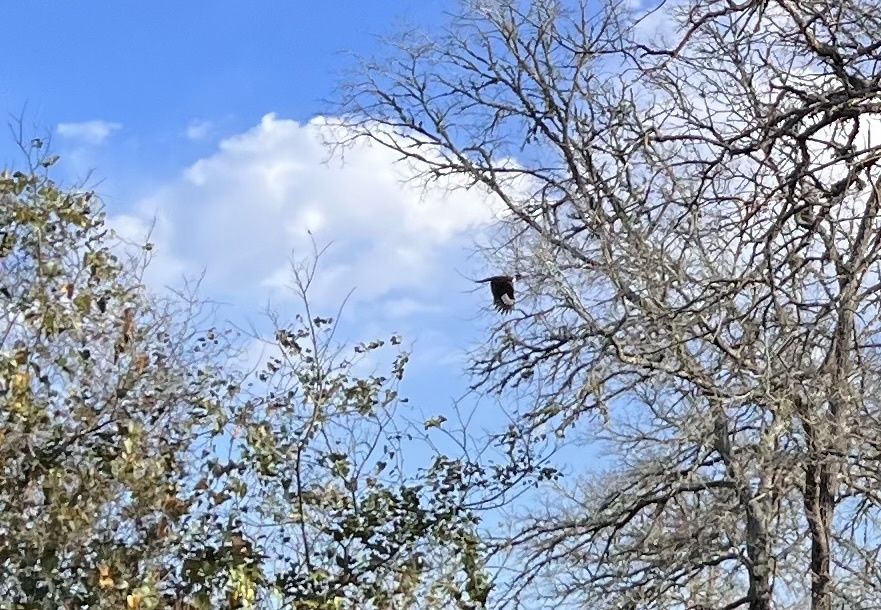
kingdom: Animalia
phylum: Chordata
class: Aves
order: Piciformes
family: Picidae
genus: Dryocopus
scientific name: Dryocopus pileatus
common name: Pileated woodpecker
